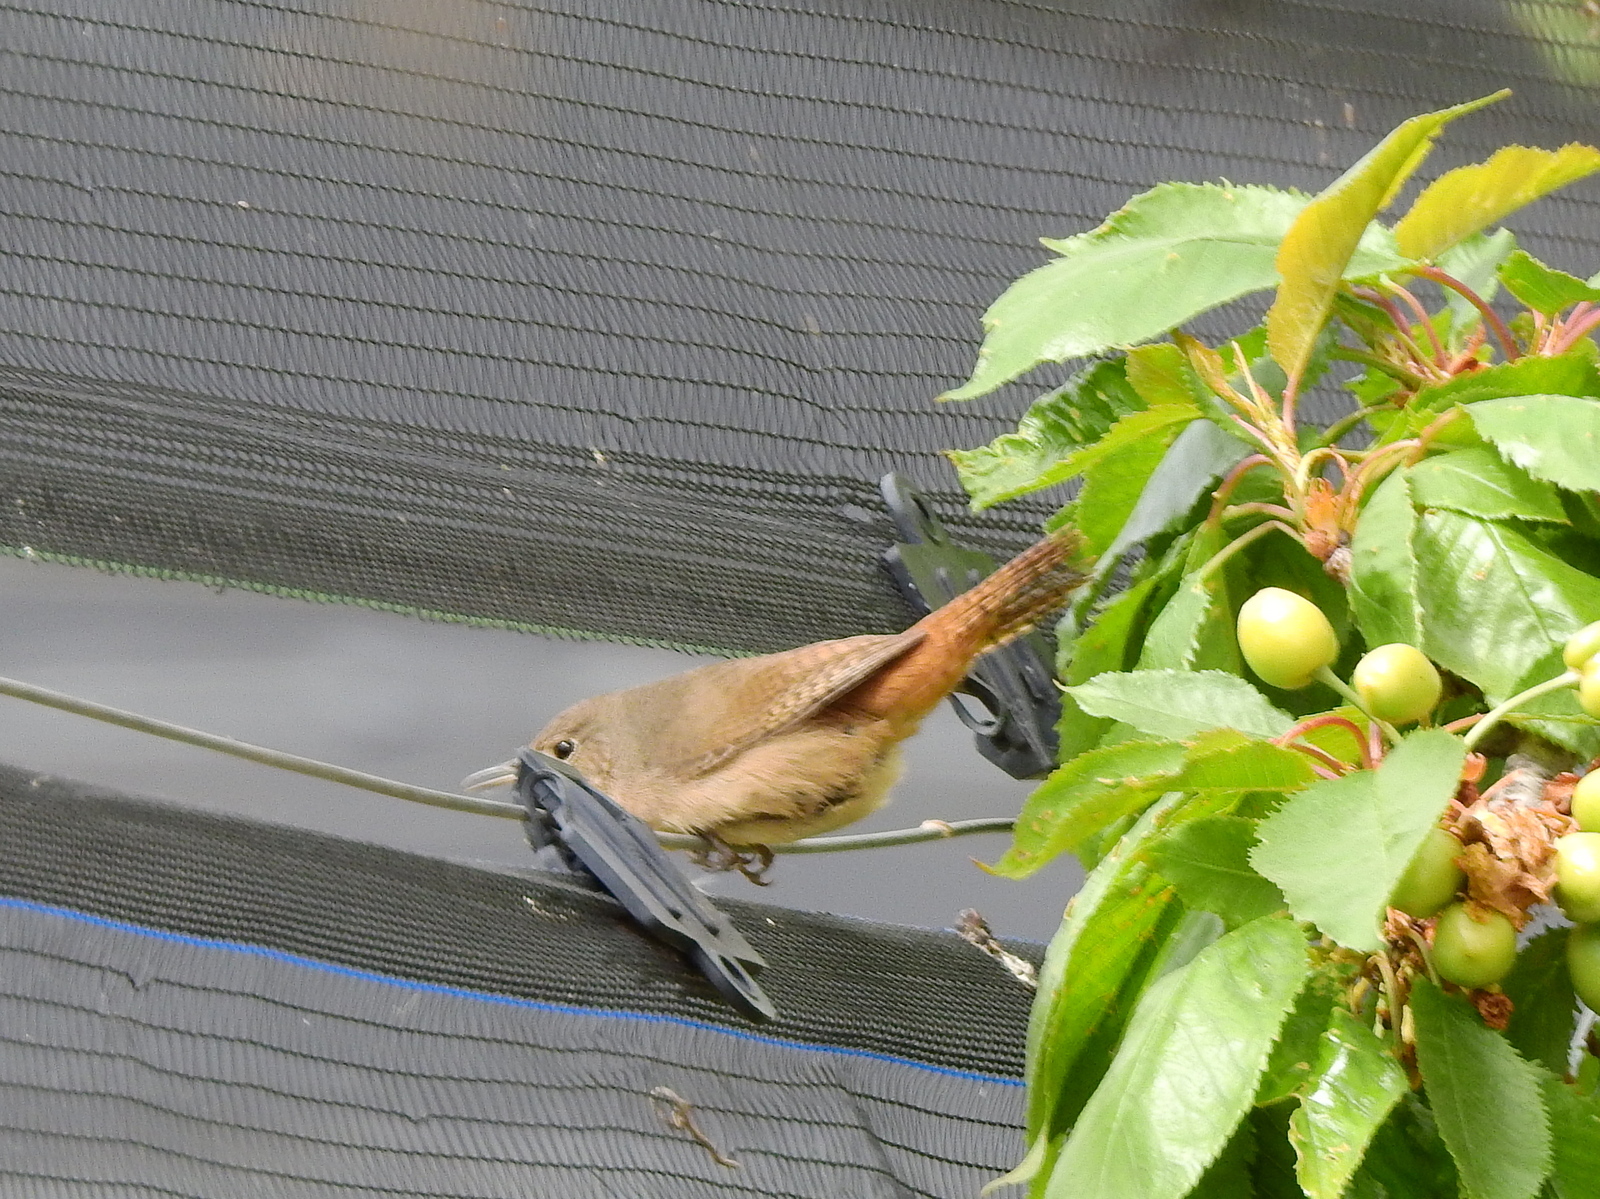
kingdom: Animalia
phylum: Chordata
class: Aves
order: Passeriformes
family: Troglodytidae
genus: Troglodytes
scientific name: Troglodytes aedon
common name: House wren
